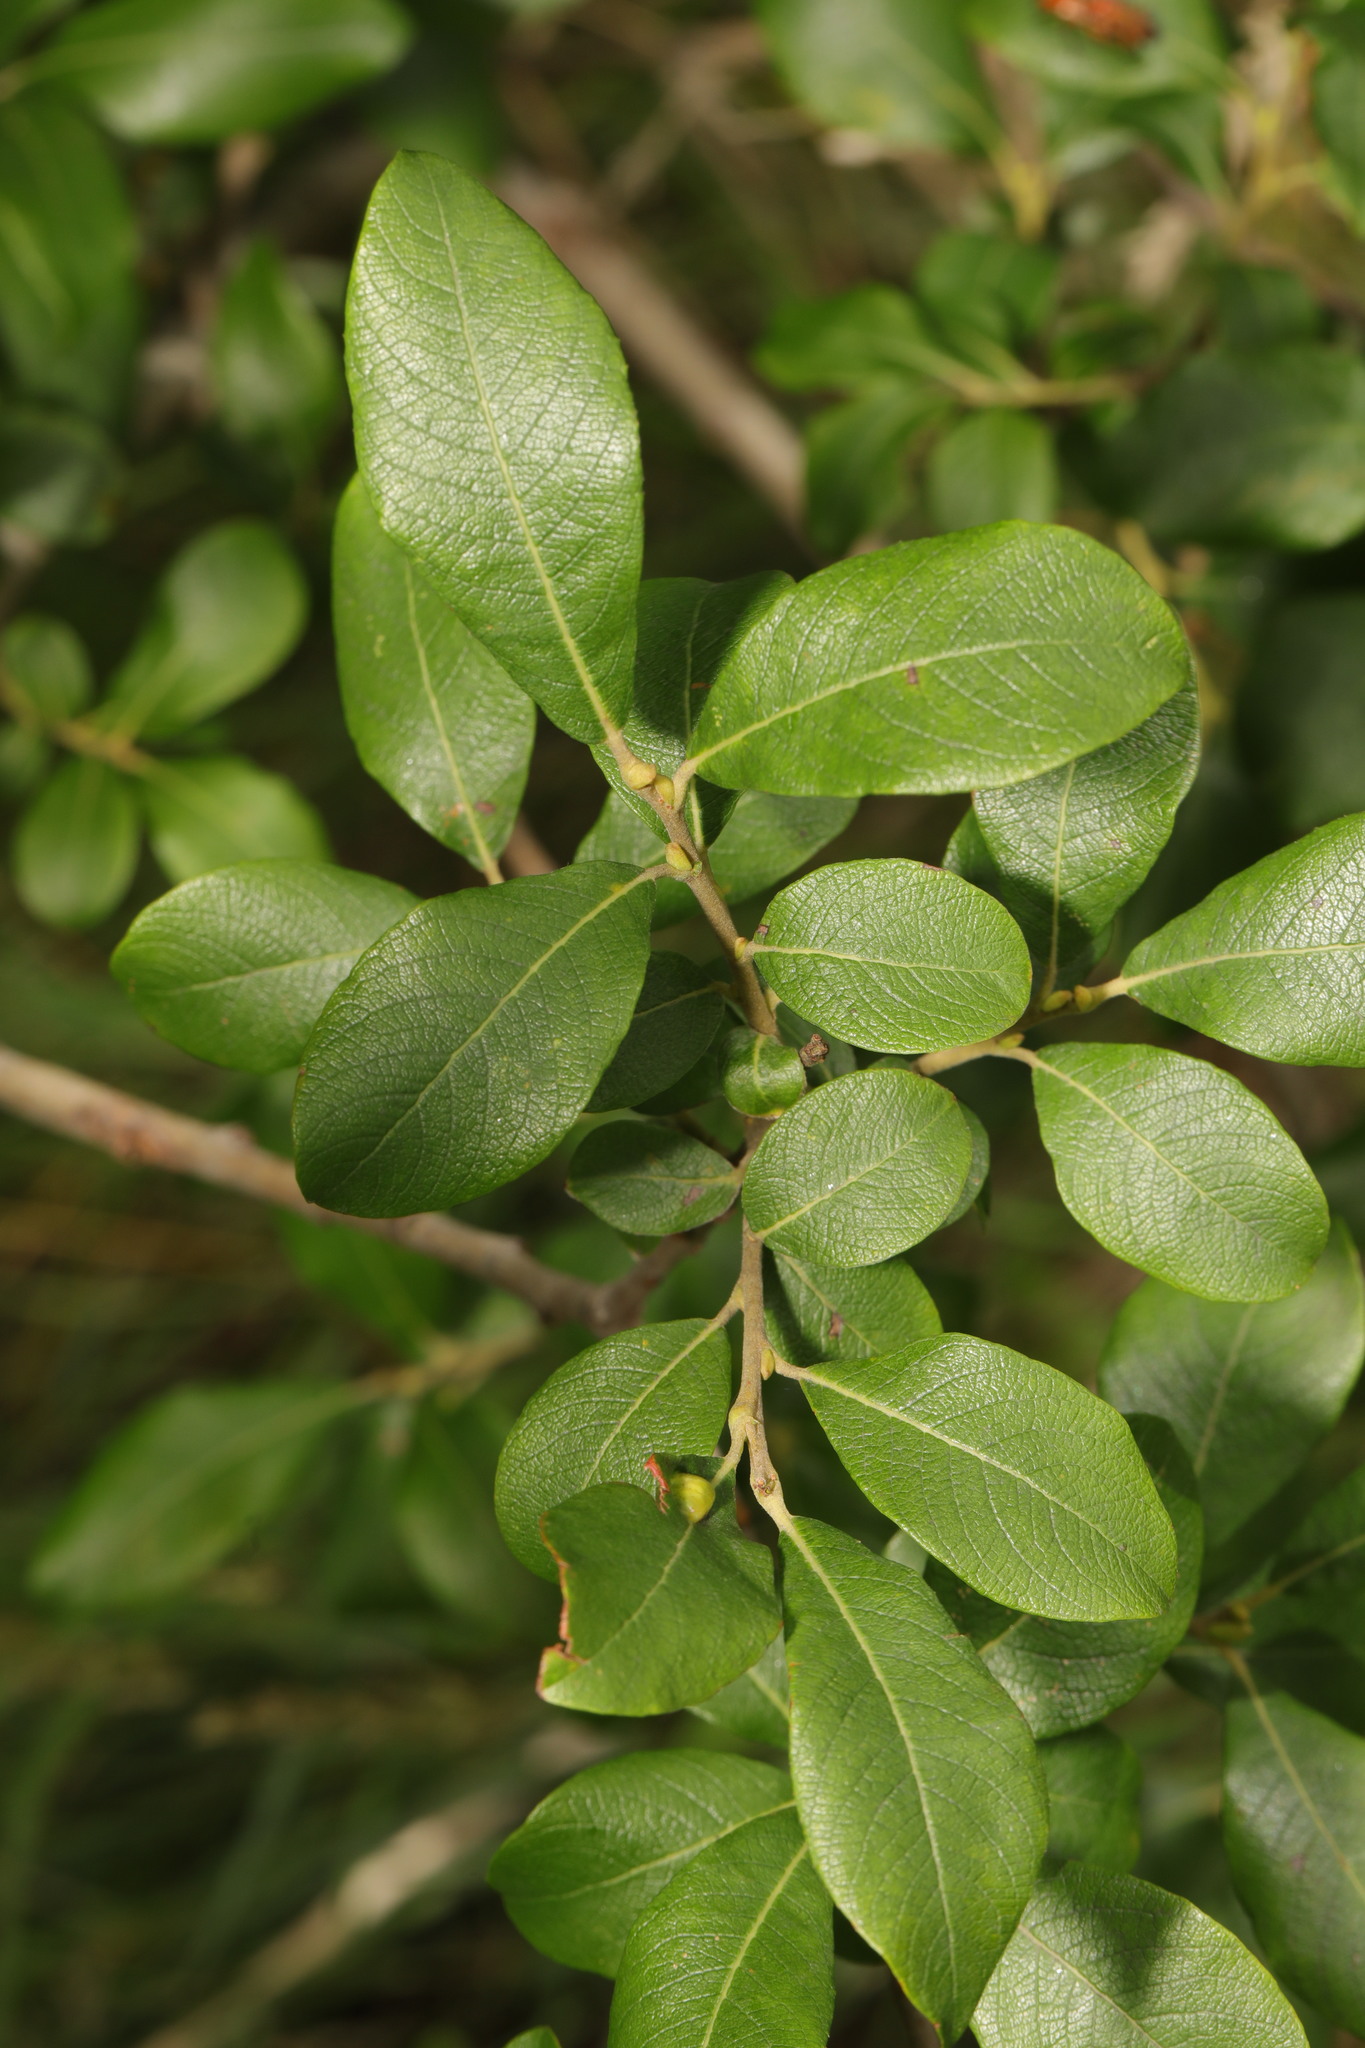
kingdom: Plantae
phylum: Tracheophyta
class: Magnoliopsida
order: Malpighiales
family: Salicaceae
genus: Salix
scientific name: Salix cinerea
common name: Common sallow
